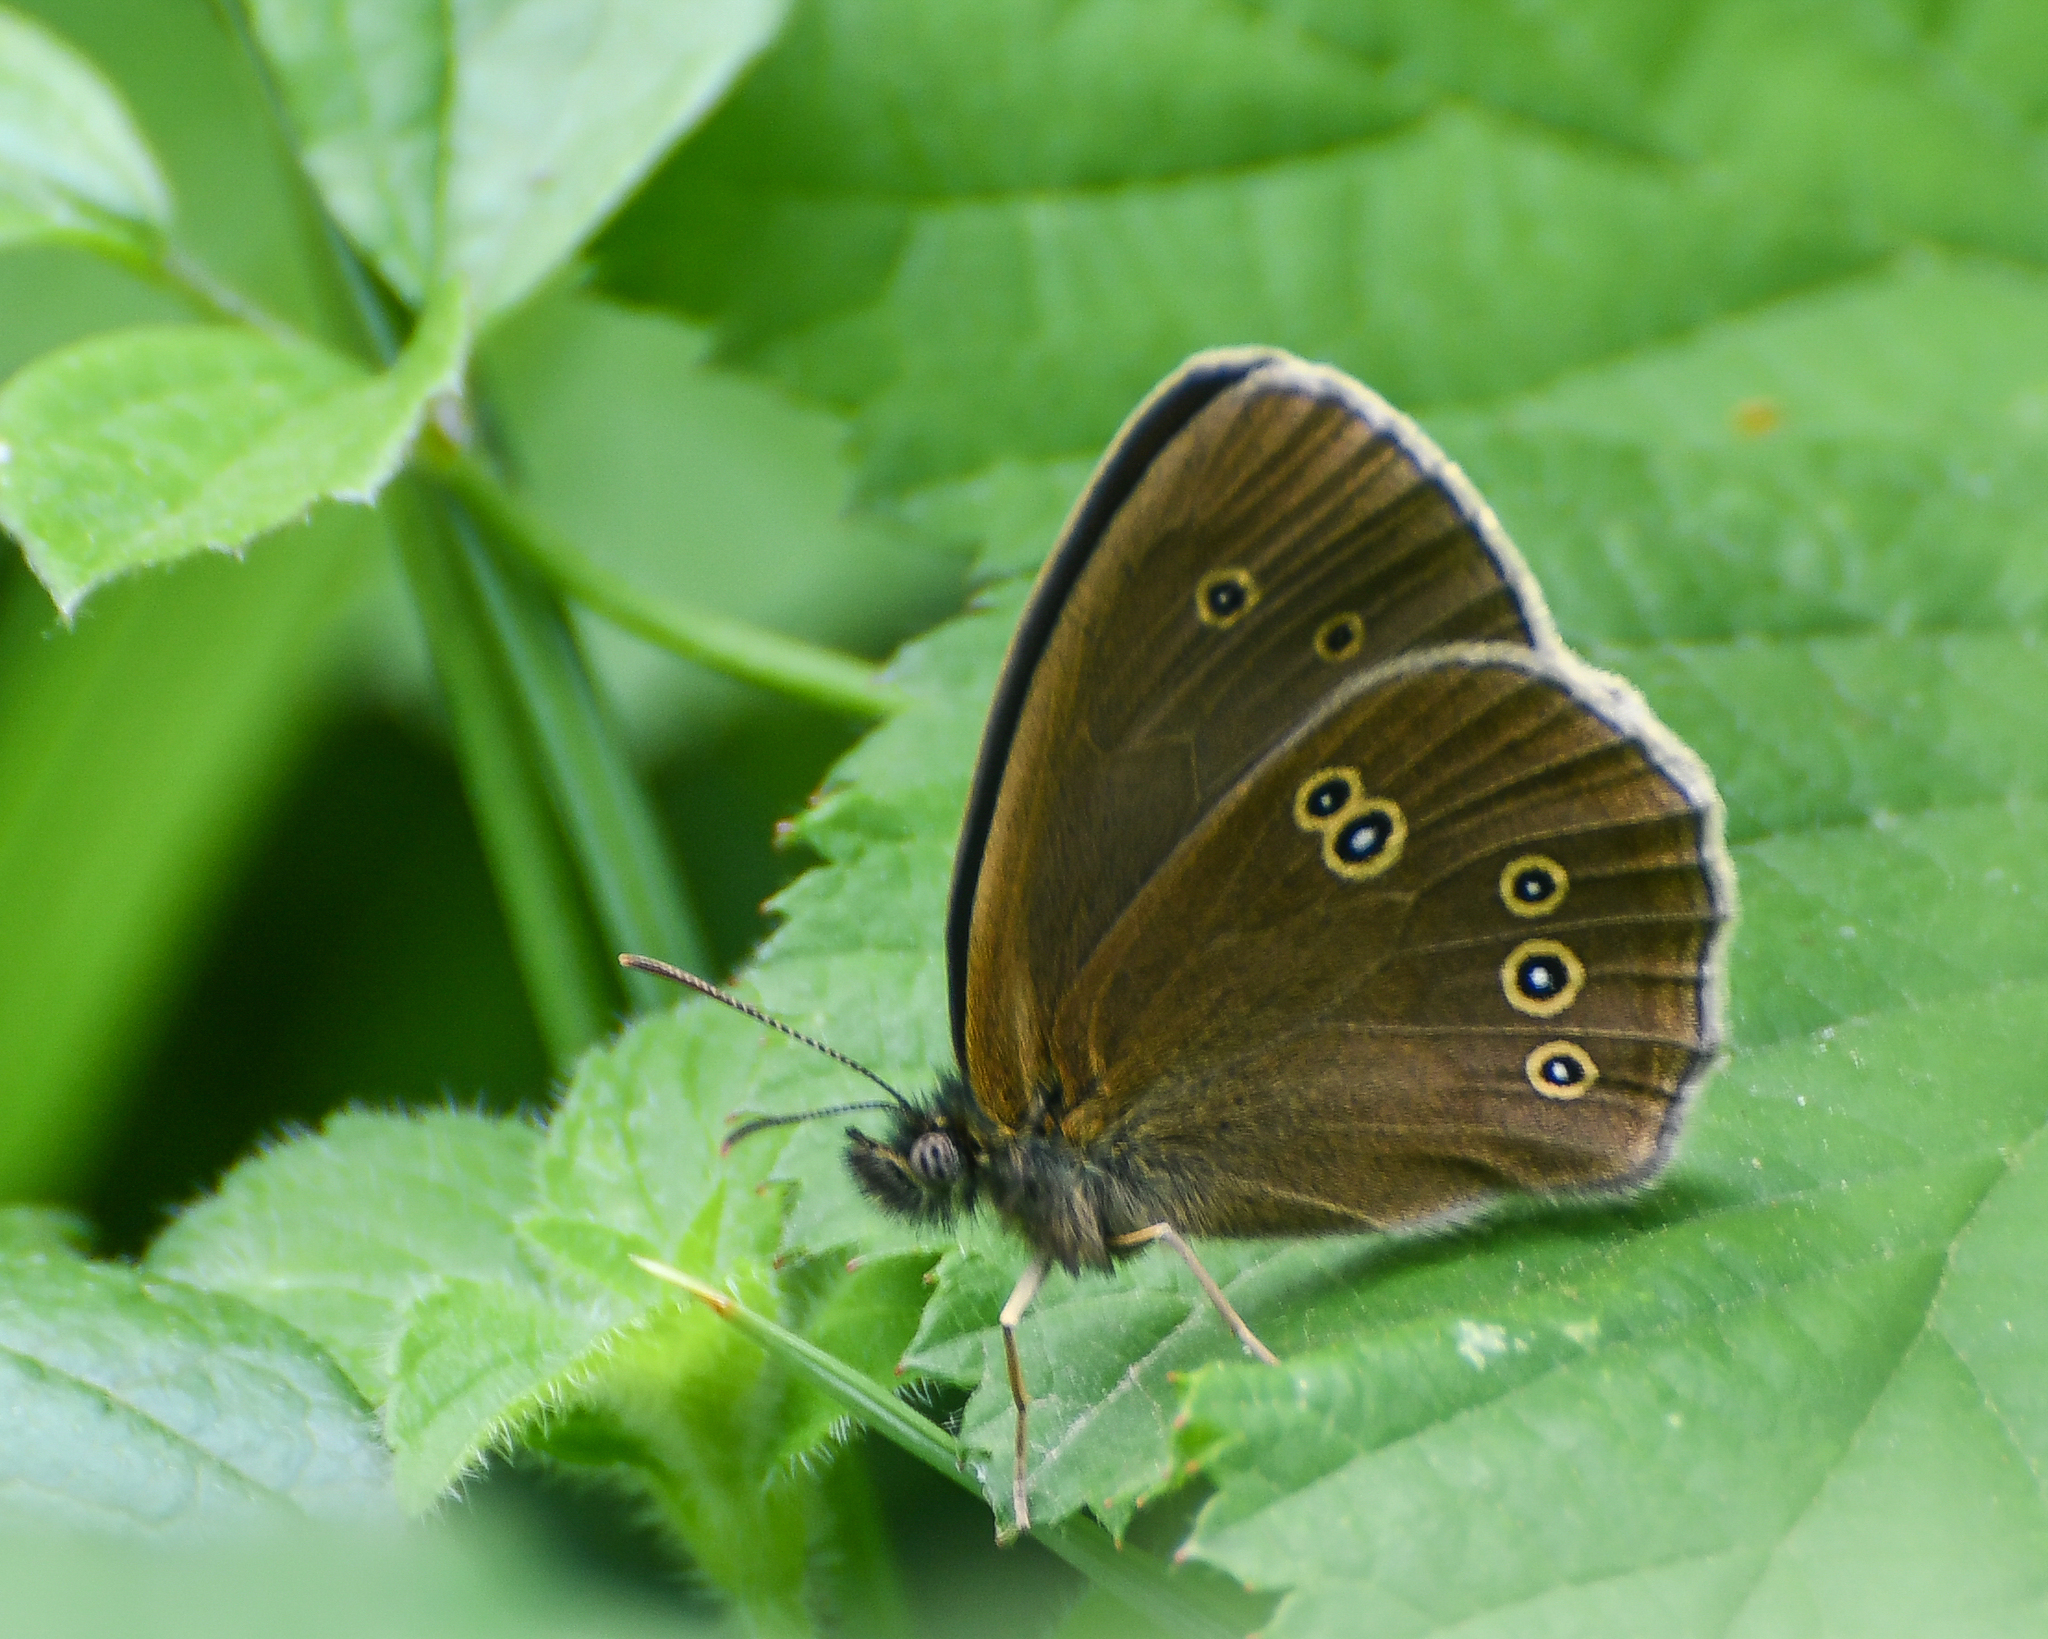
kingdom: Animalia
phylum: Arthropoda
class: Insecta
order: Lepidoptera
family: Nymphalidae
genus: Aphantopus
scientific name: Aphantopus hyperantus
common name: Ringlet
